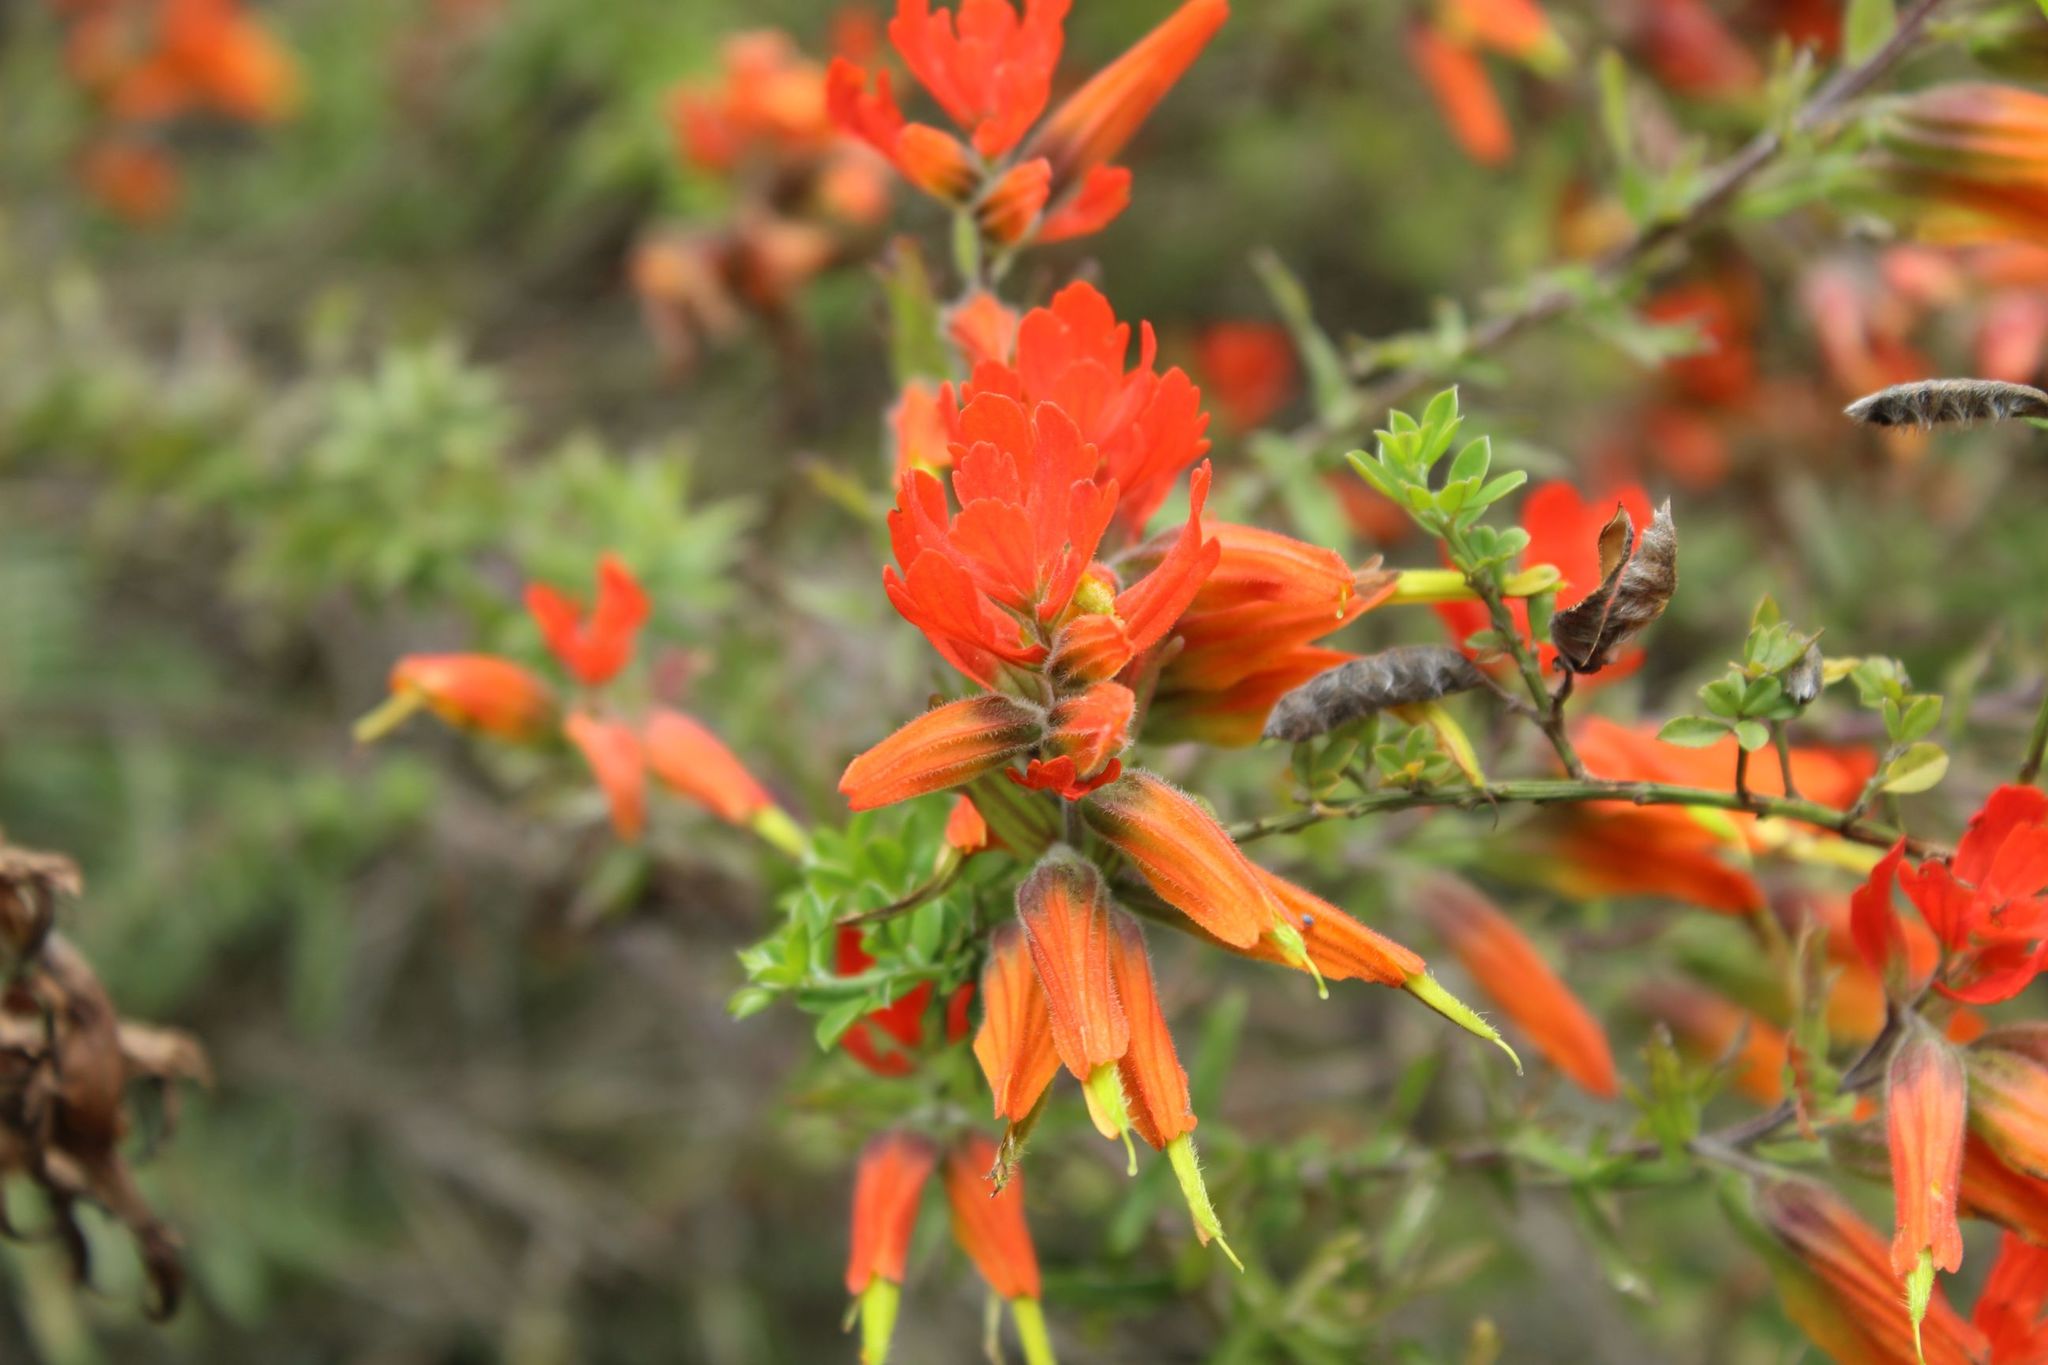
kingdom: Plantae
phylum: Tracheophyta
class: Magnoliopsida
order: Lamiales
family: Orobanchaceae
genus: Castilleja
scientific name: Castilleja integrifolia
